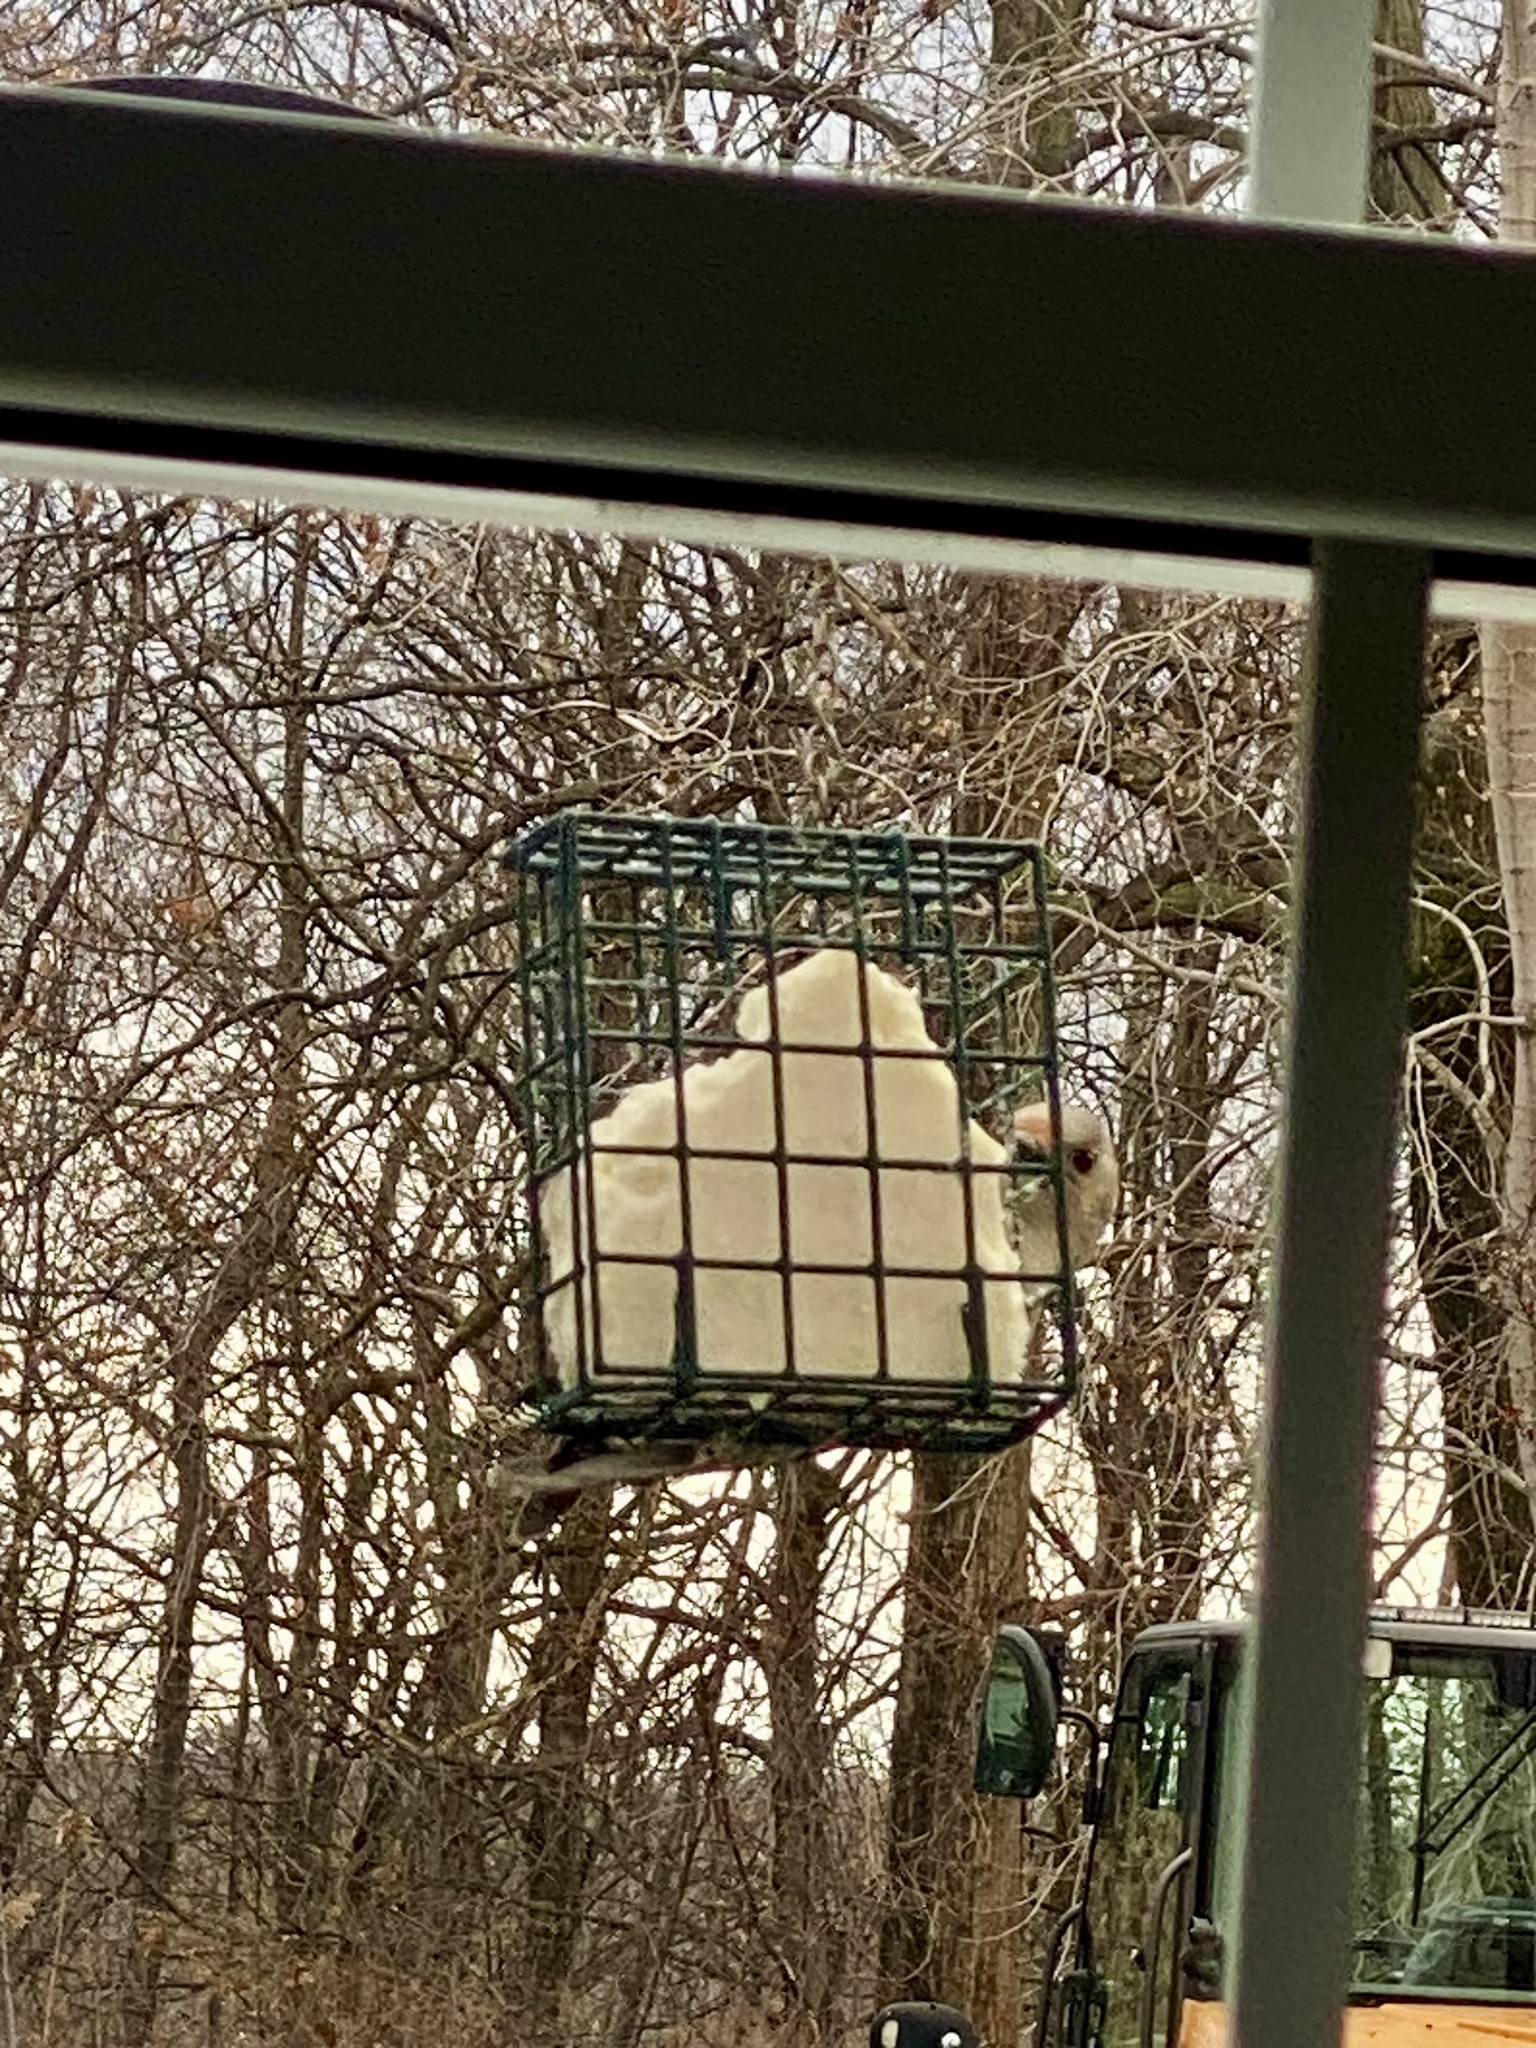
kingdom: Animalia
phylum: Chordata
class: Aves
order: Piciformes
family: Picidae
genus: Melanerpes
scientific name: Melanerpes carolinus
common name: Red-bellied woodpecker
